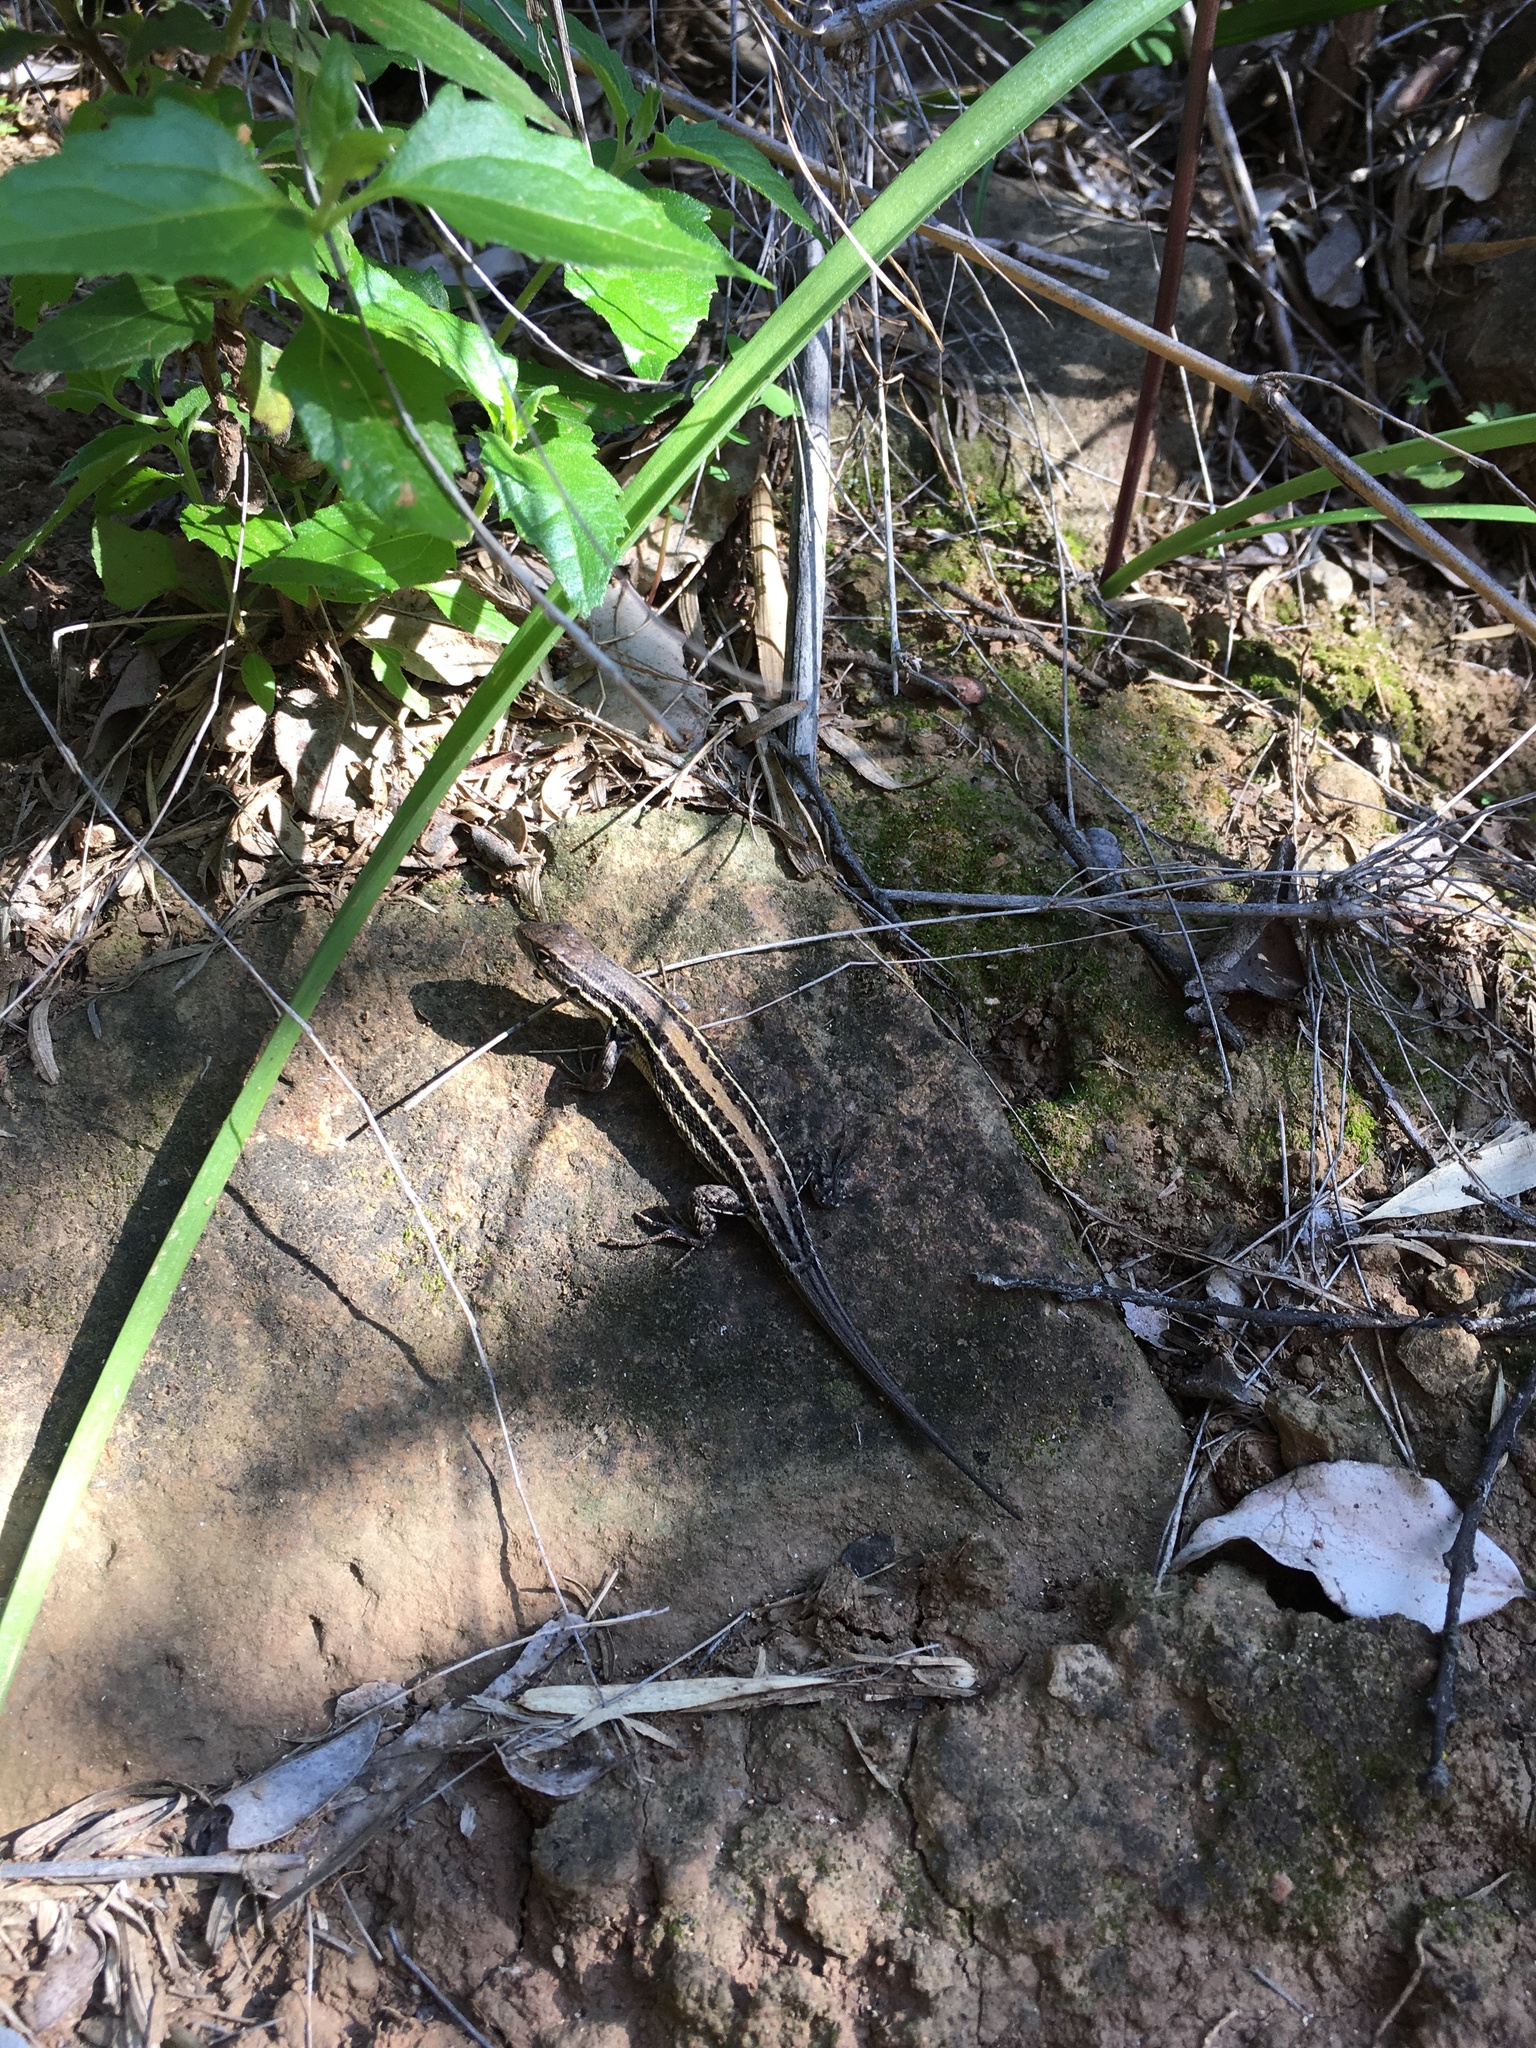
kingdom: Animalia
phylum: Chordata
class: Squamata
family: Liolaemidae
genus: Liolaemus
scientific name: Liolaemus lemniscatus
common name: Wreath tree iguana
